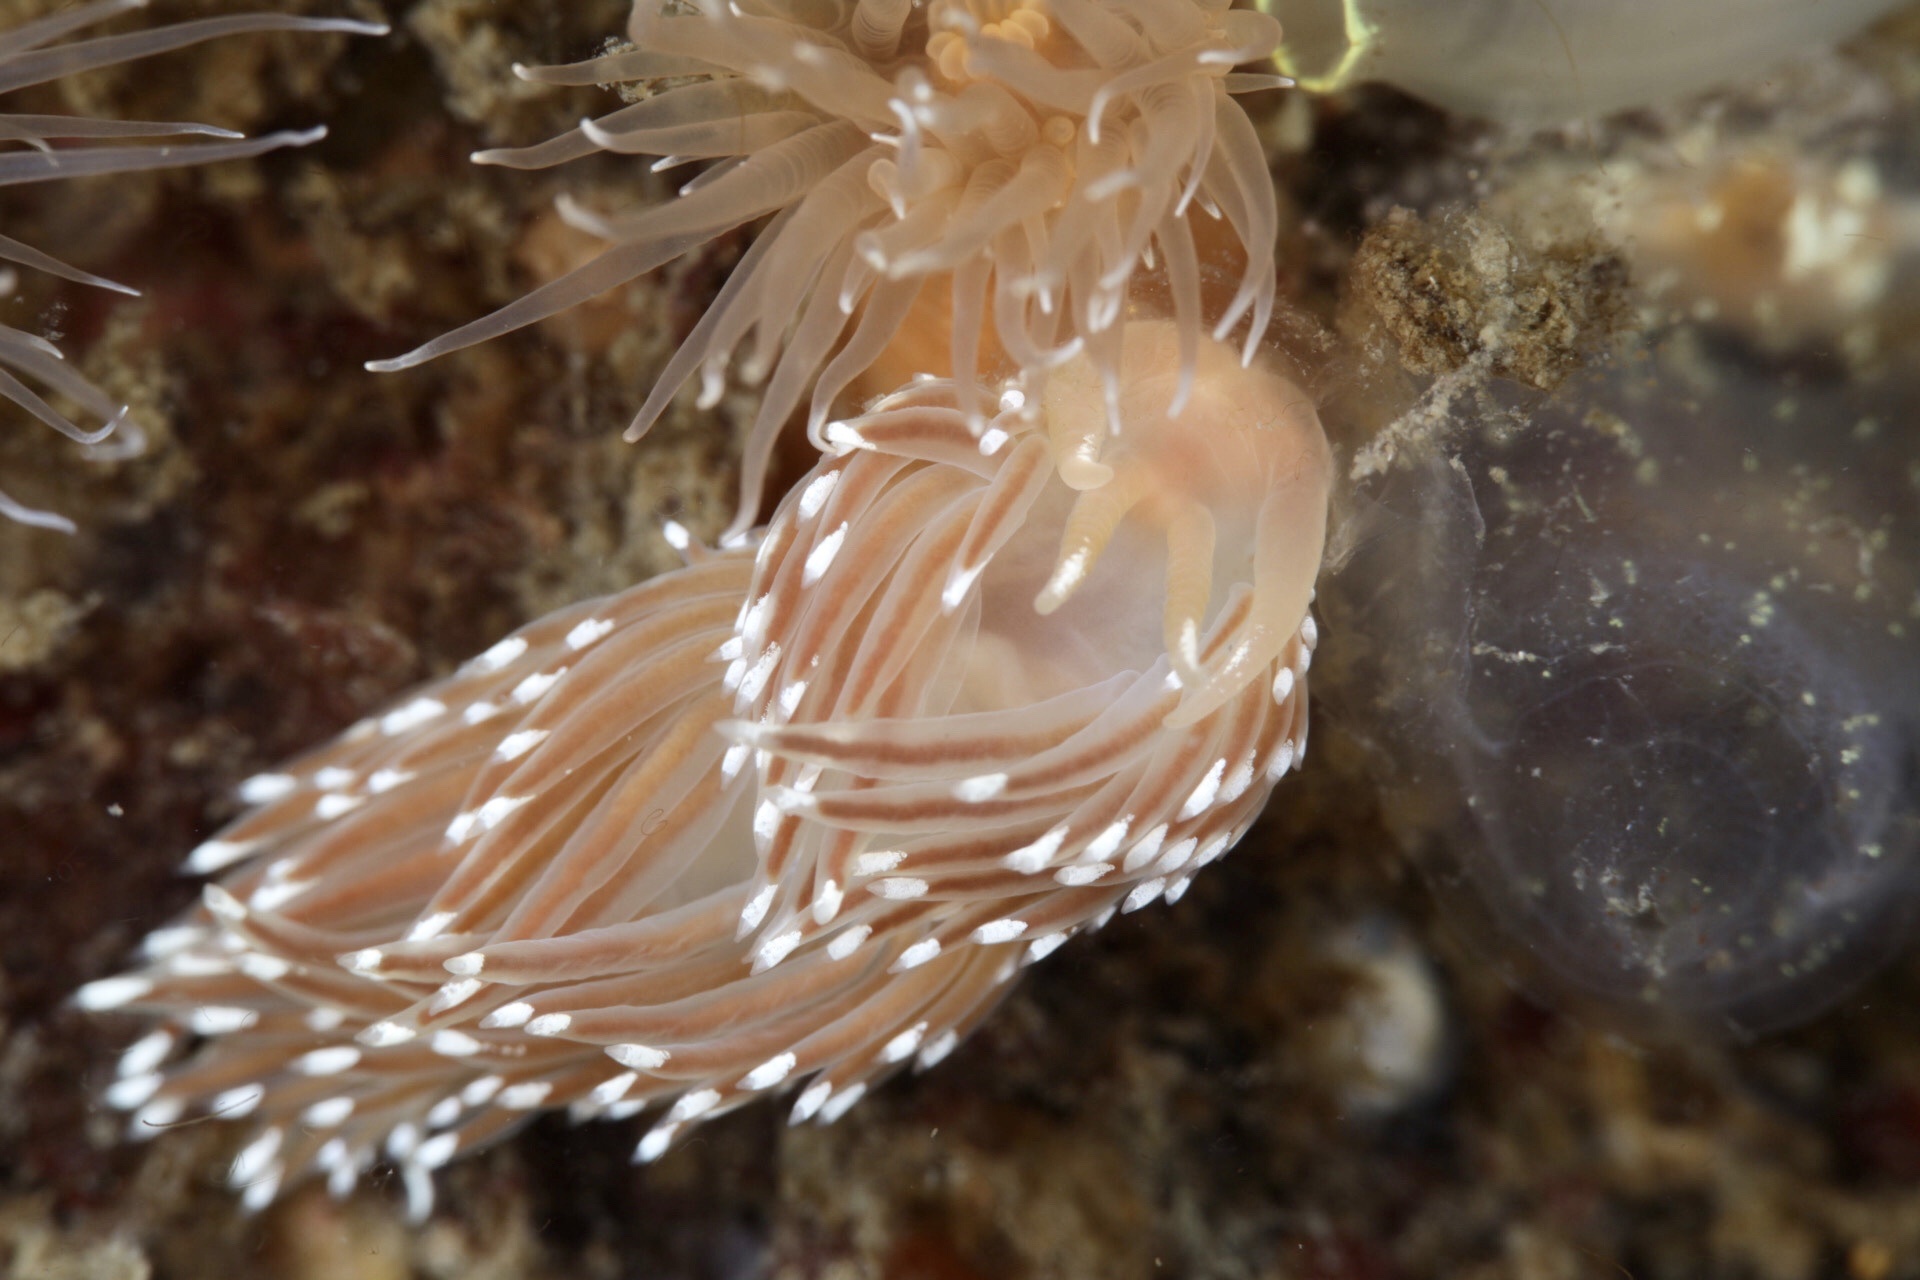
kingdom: Animalia
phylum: Mollusca
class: Gastropoda
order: Nudibranchia
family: Facelinidae
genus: Facelina
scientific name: Facelina bostoniensis
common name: Boston facelina
